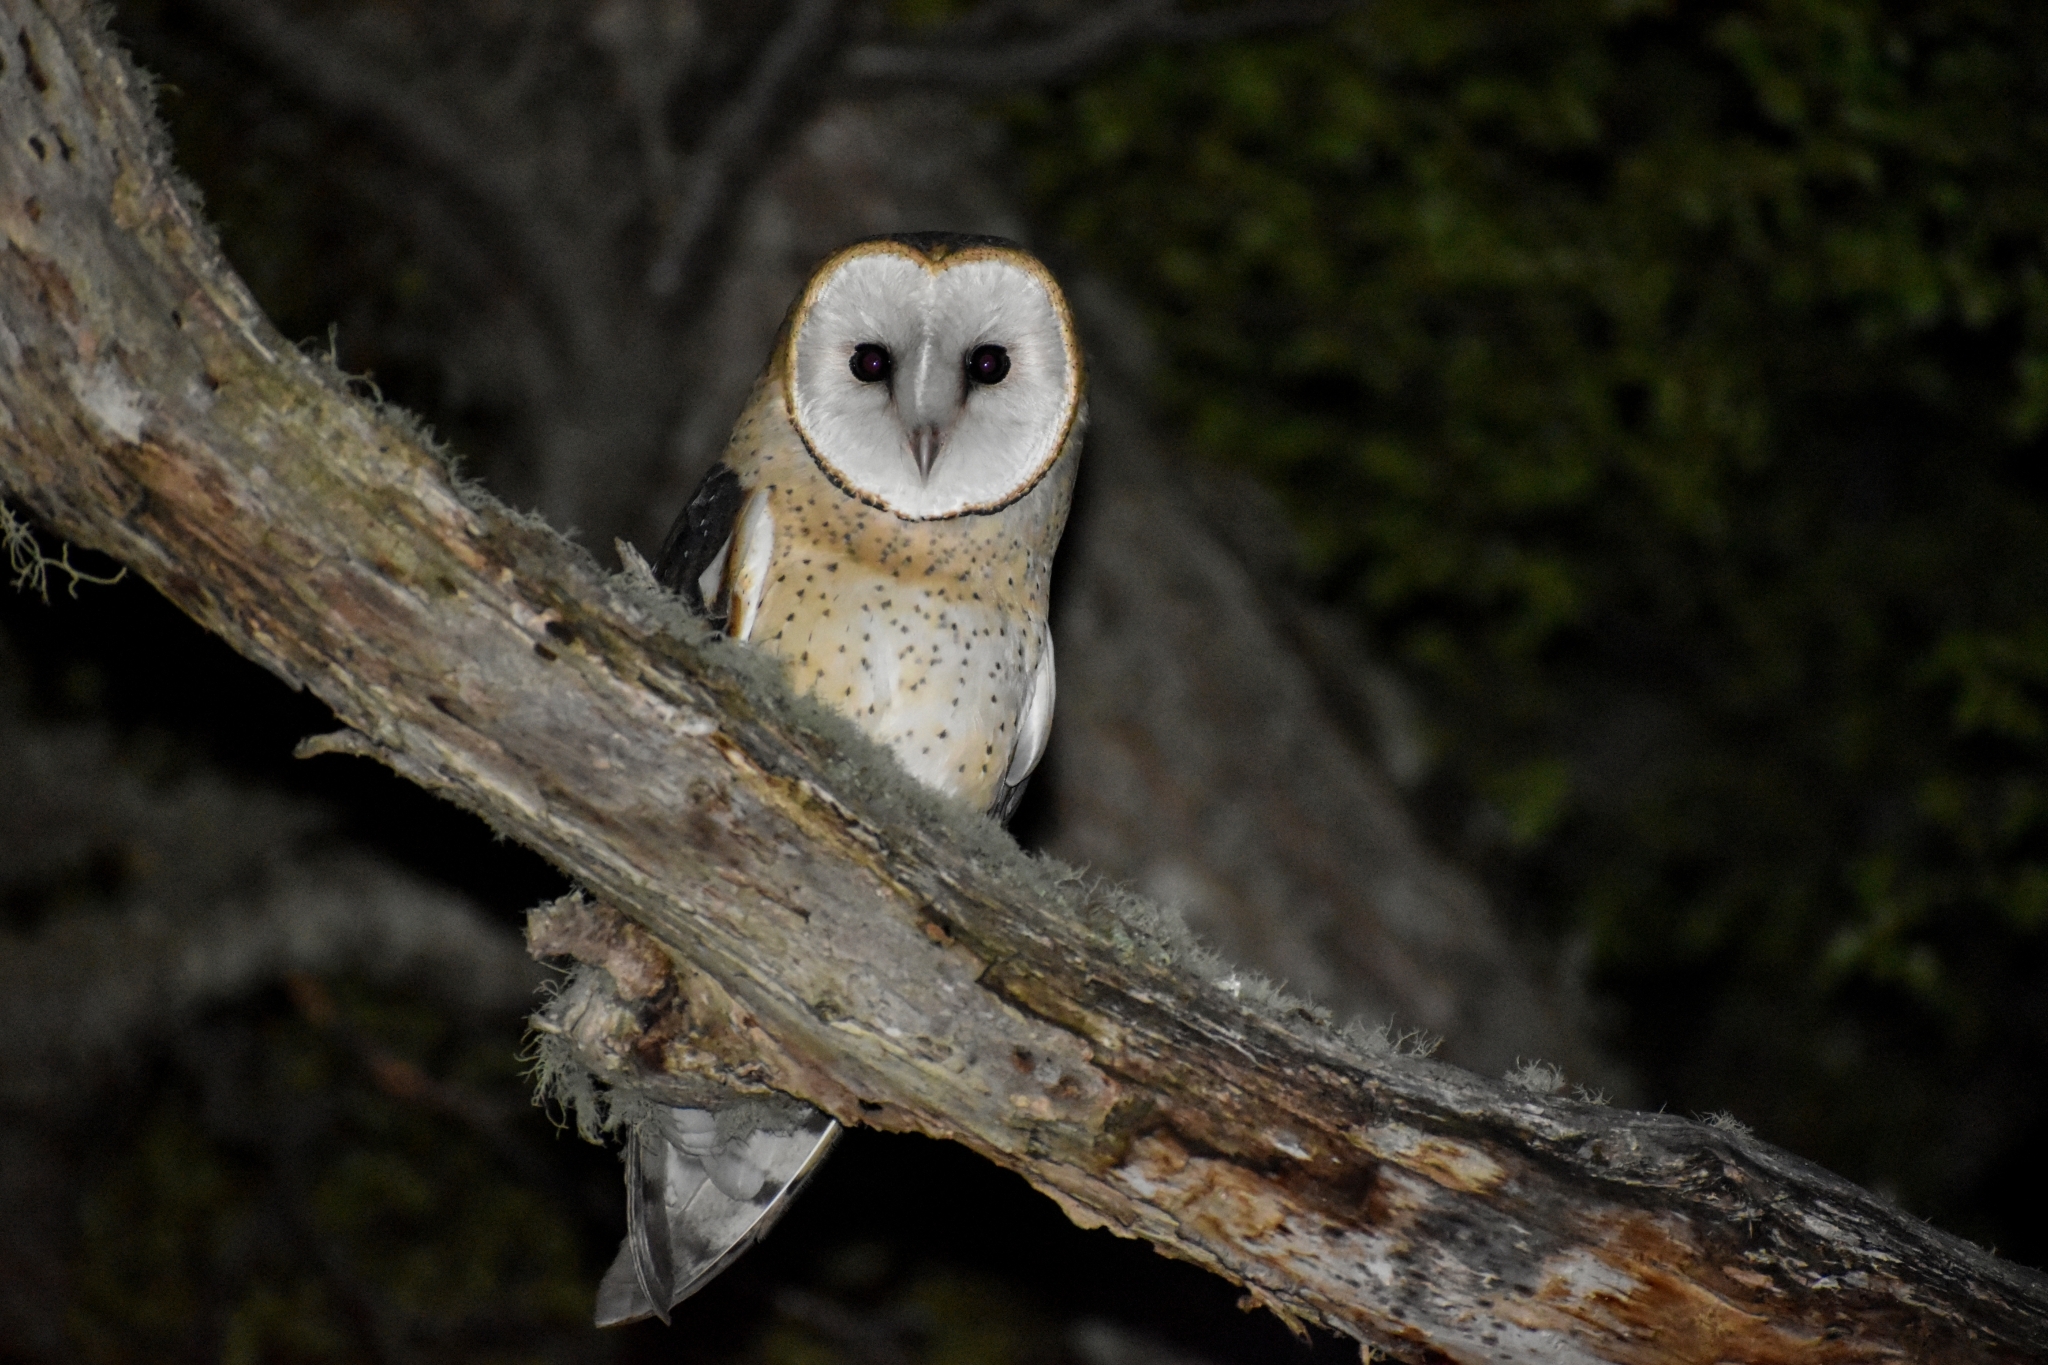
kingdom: Animalia
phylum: Chordata
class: Aves
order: Strigiformes
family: Tytonidae
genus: Tyto
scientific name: Tyto alba
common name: Barn owl
